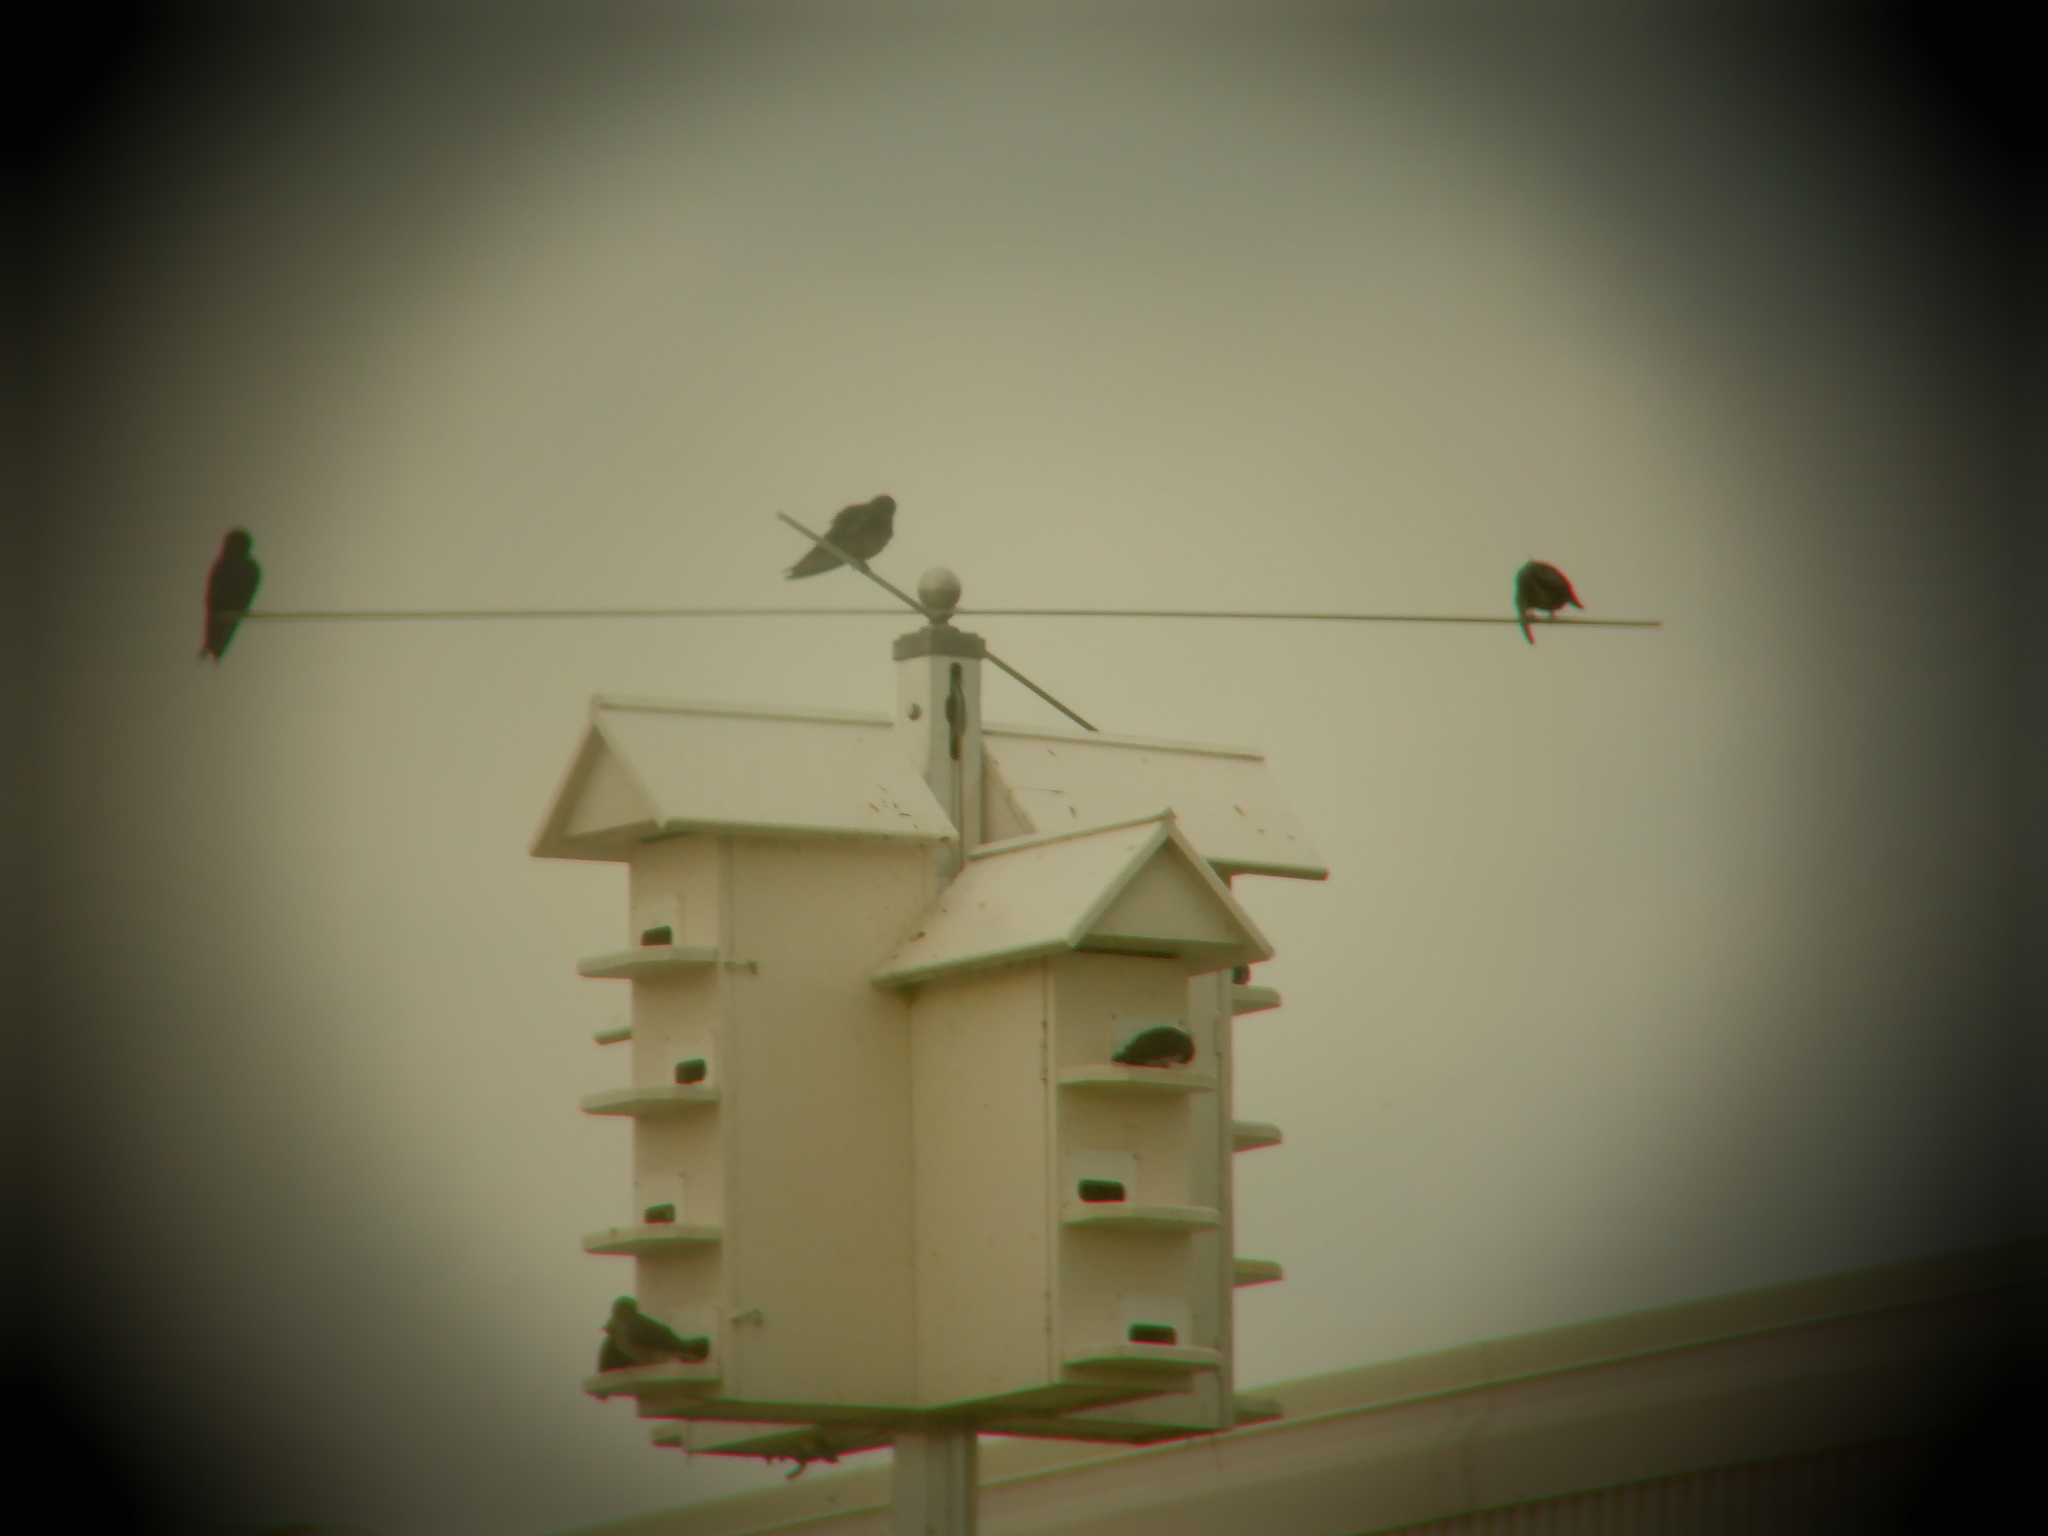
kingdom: Animalia
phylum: Chordata
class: Aves
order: Passeriformes
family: Passeridae
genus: Passer
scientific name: Passer domesticus
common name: House sparrow
